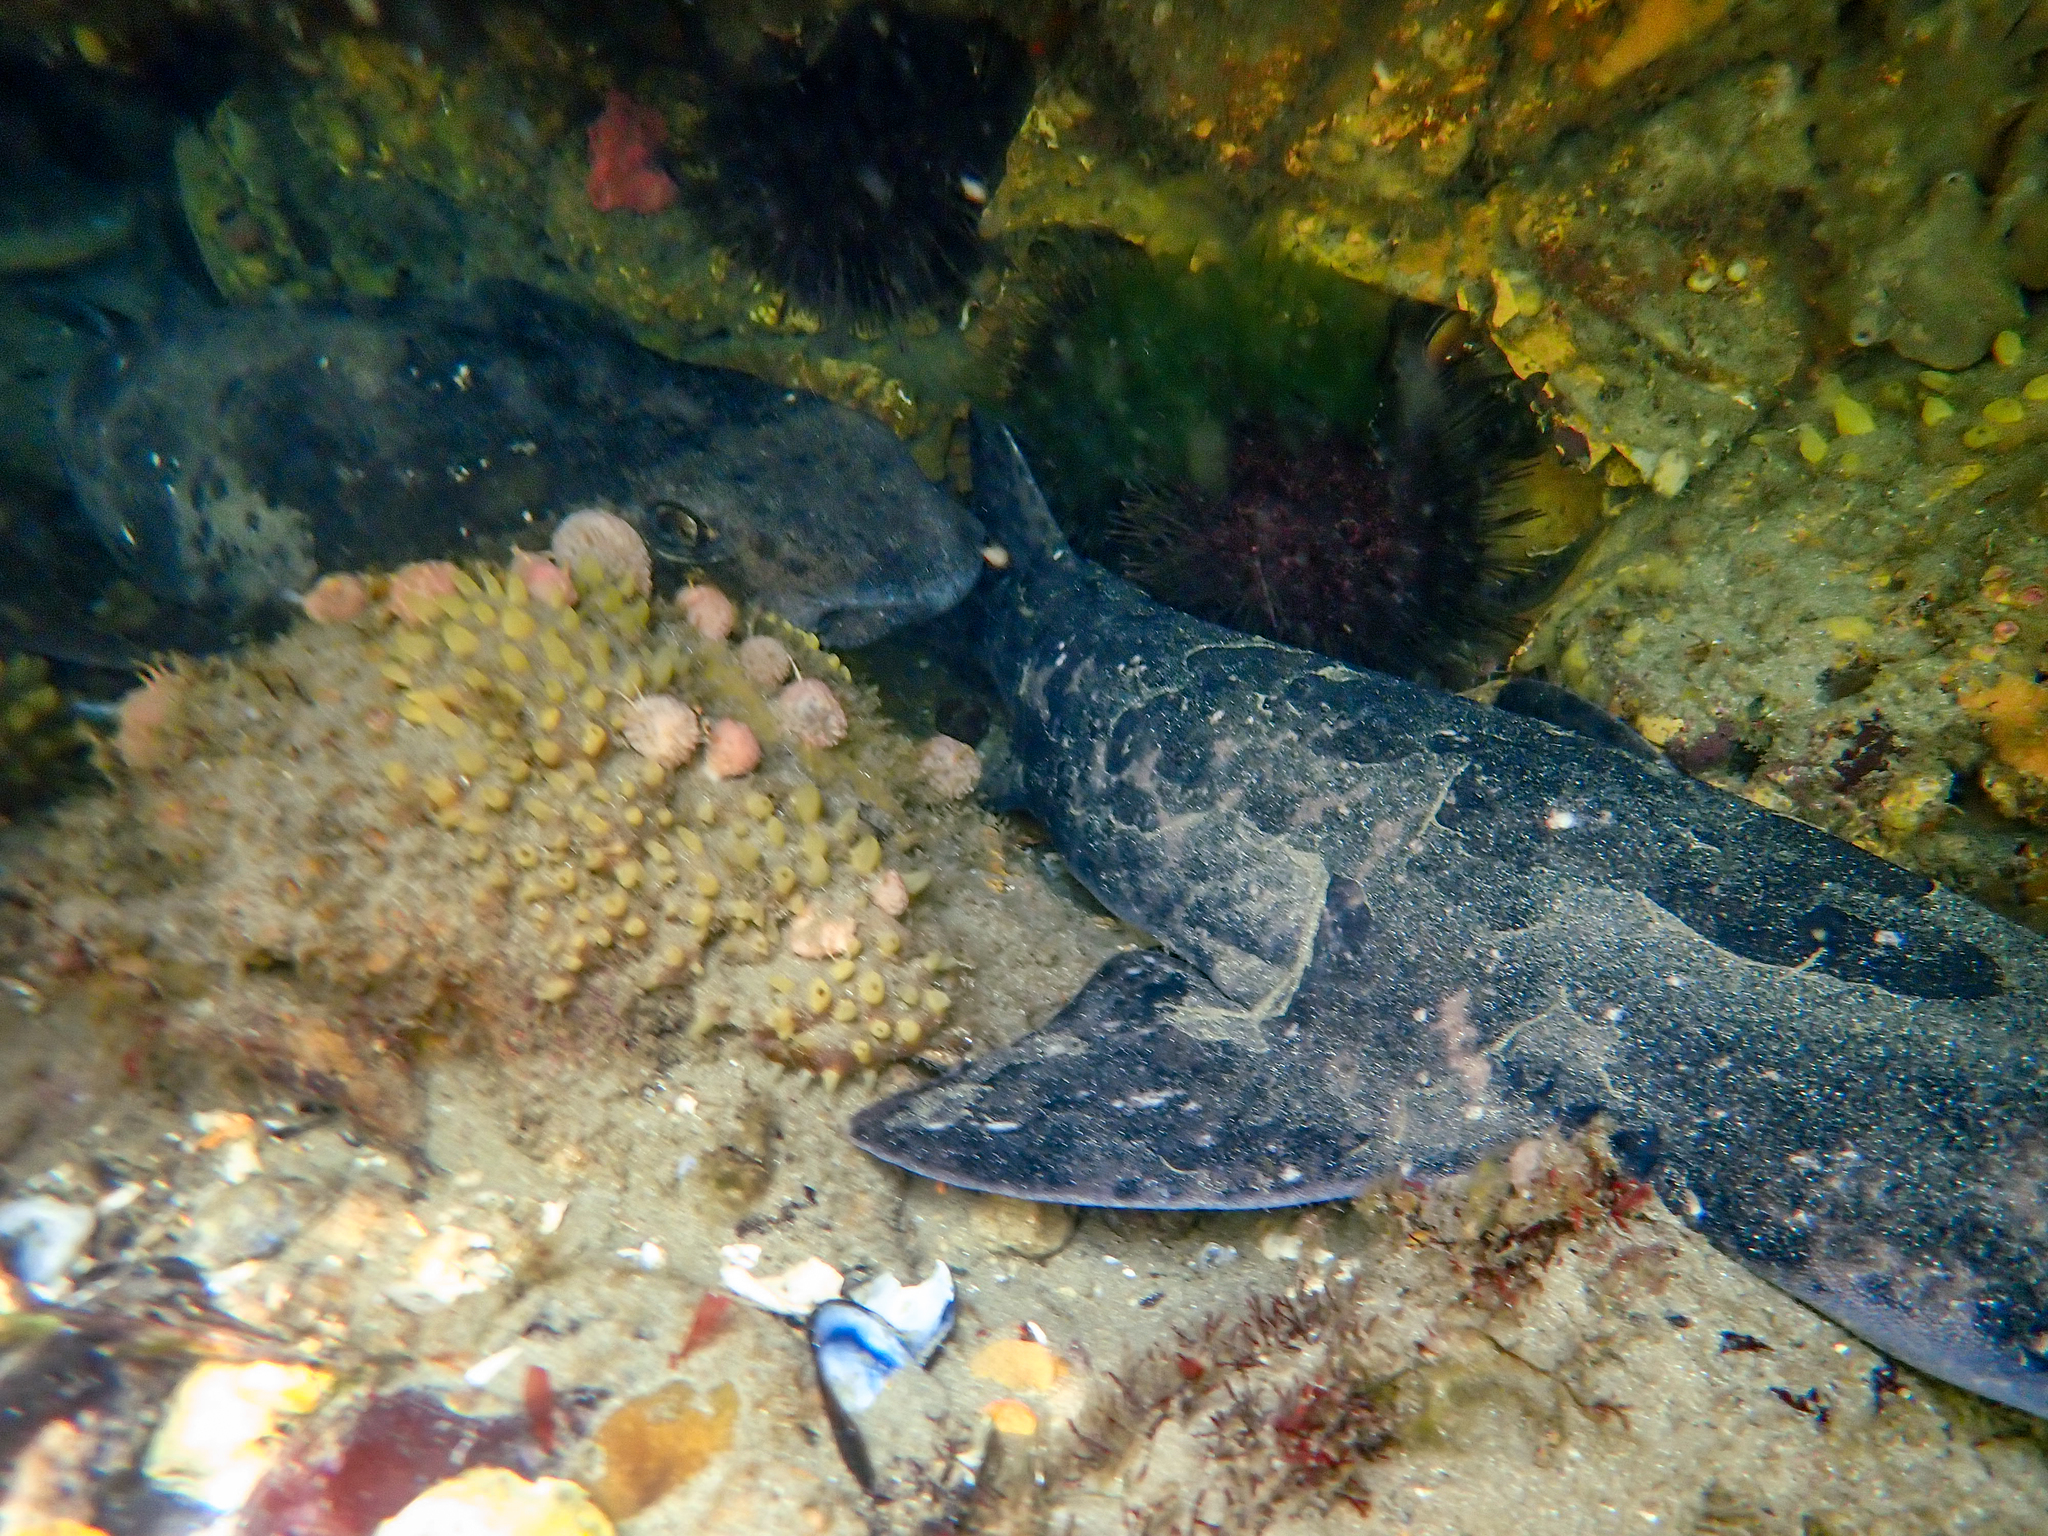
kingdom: Animalia
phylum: Chordata
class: Elasmobranchii
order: Carcharhiniformes
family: Scyliorhinidae
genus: Cephaloscyllium
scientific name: Cephaloscyllium laticeps
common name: Australian swellshark
